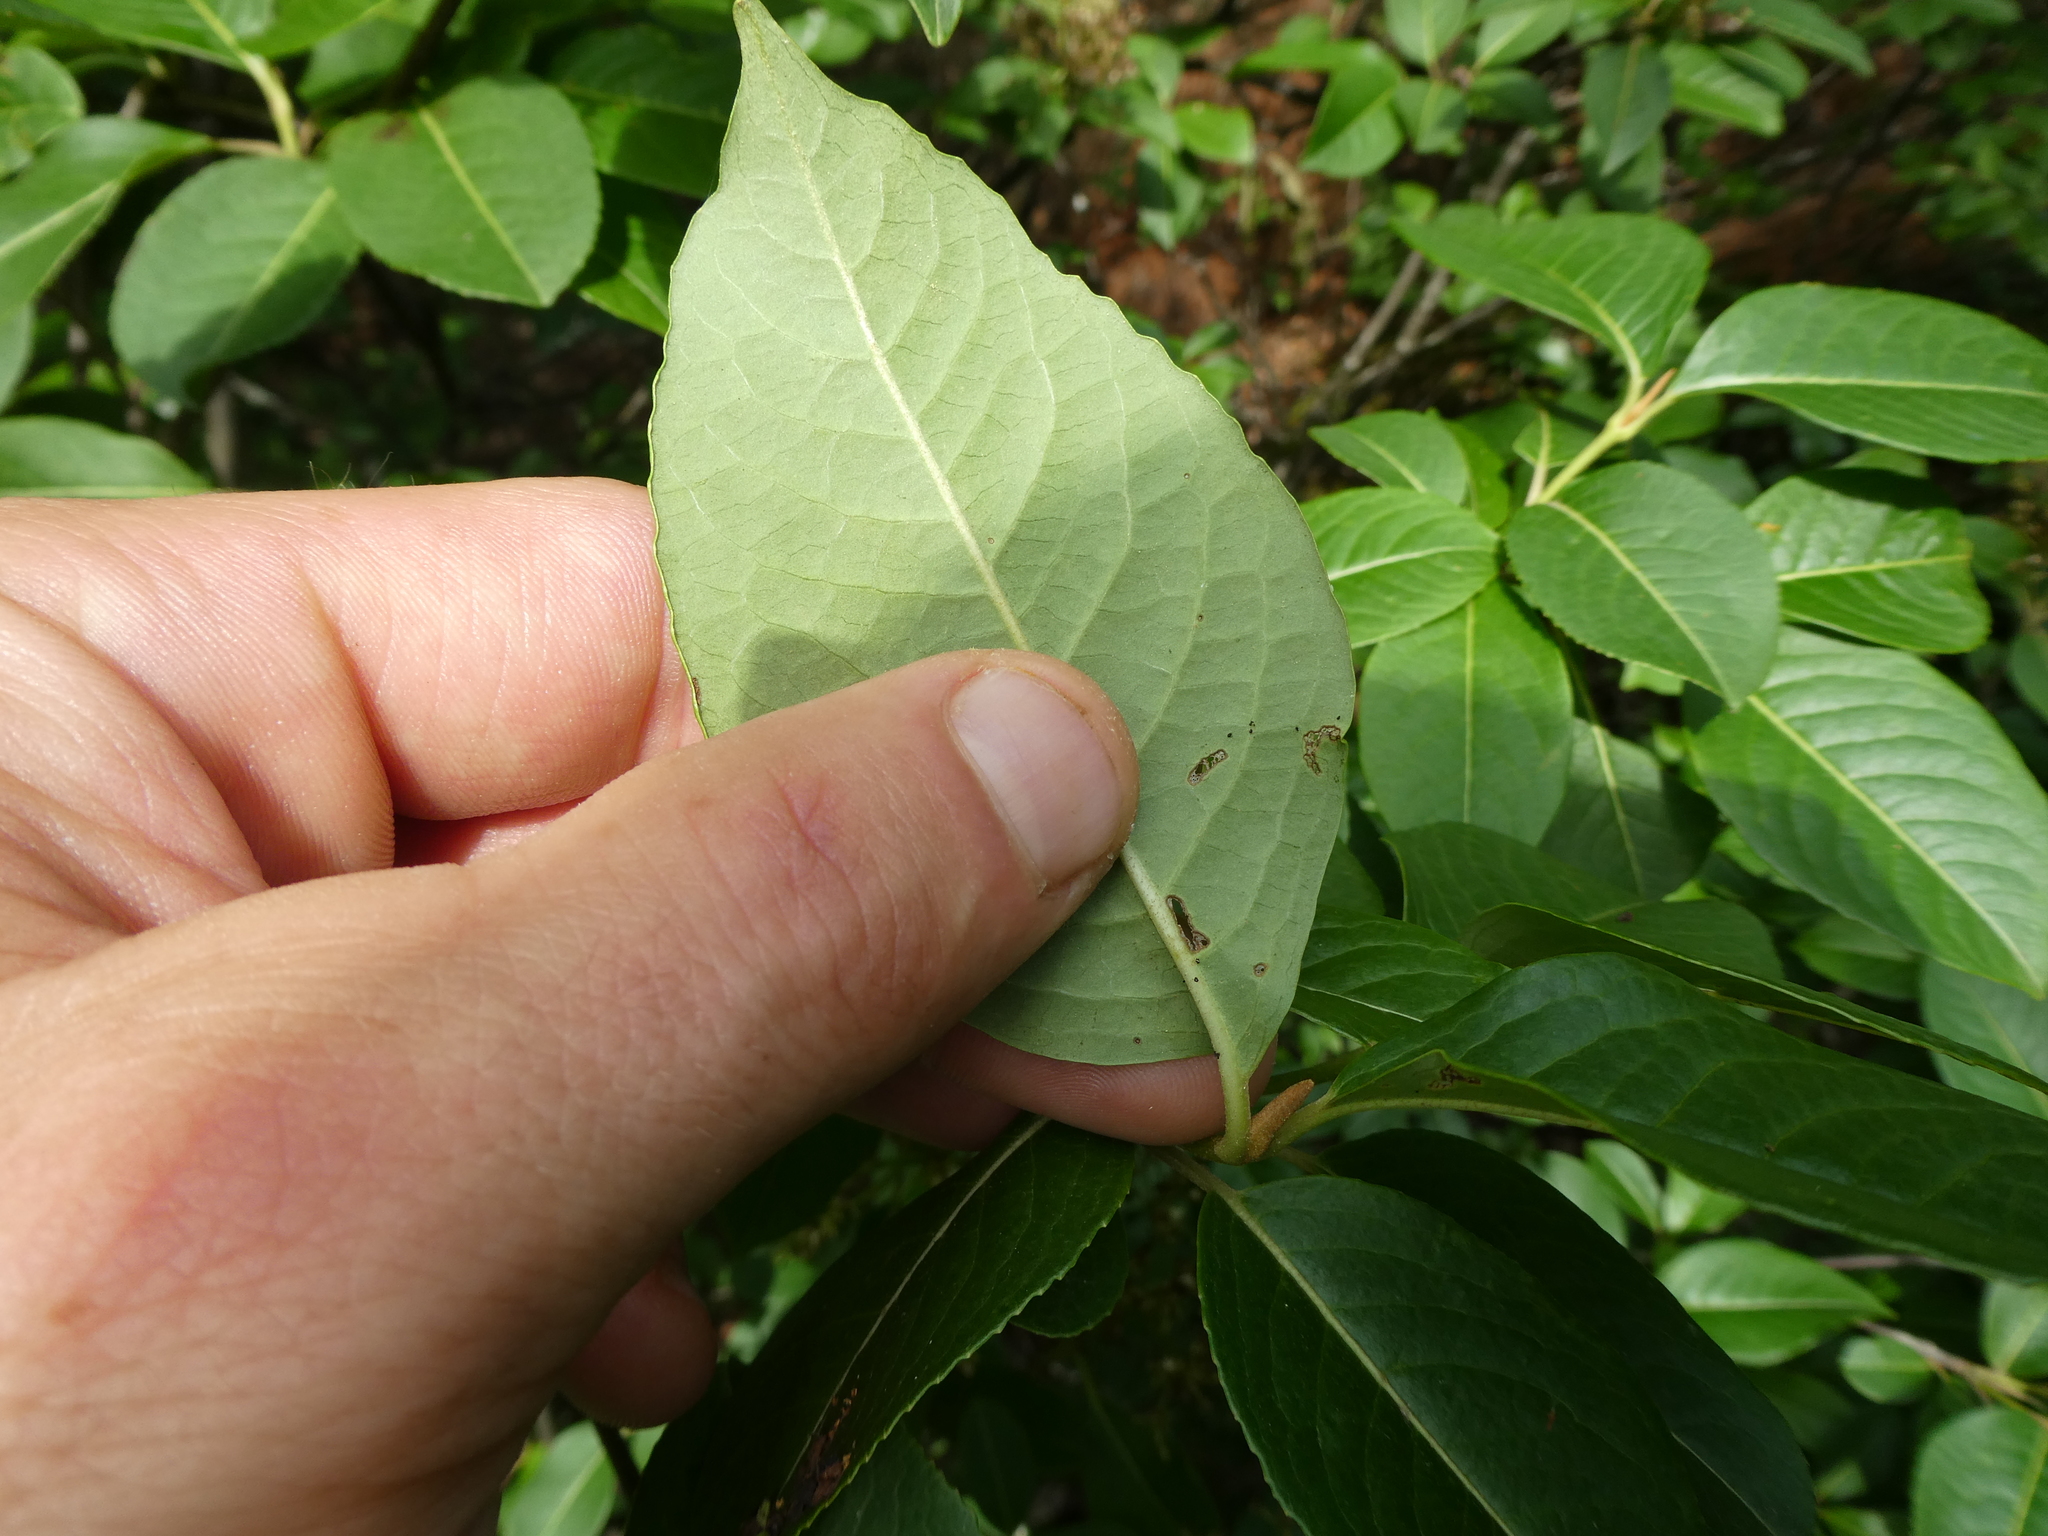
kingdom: Plantae
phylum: Tracheophyta
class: Magnoliopsida
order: Dipsacales
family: Viburnaceae
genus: Viburnum
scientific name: Viburnum cassinoides
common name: Swamp haw
